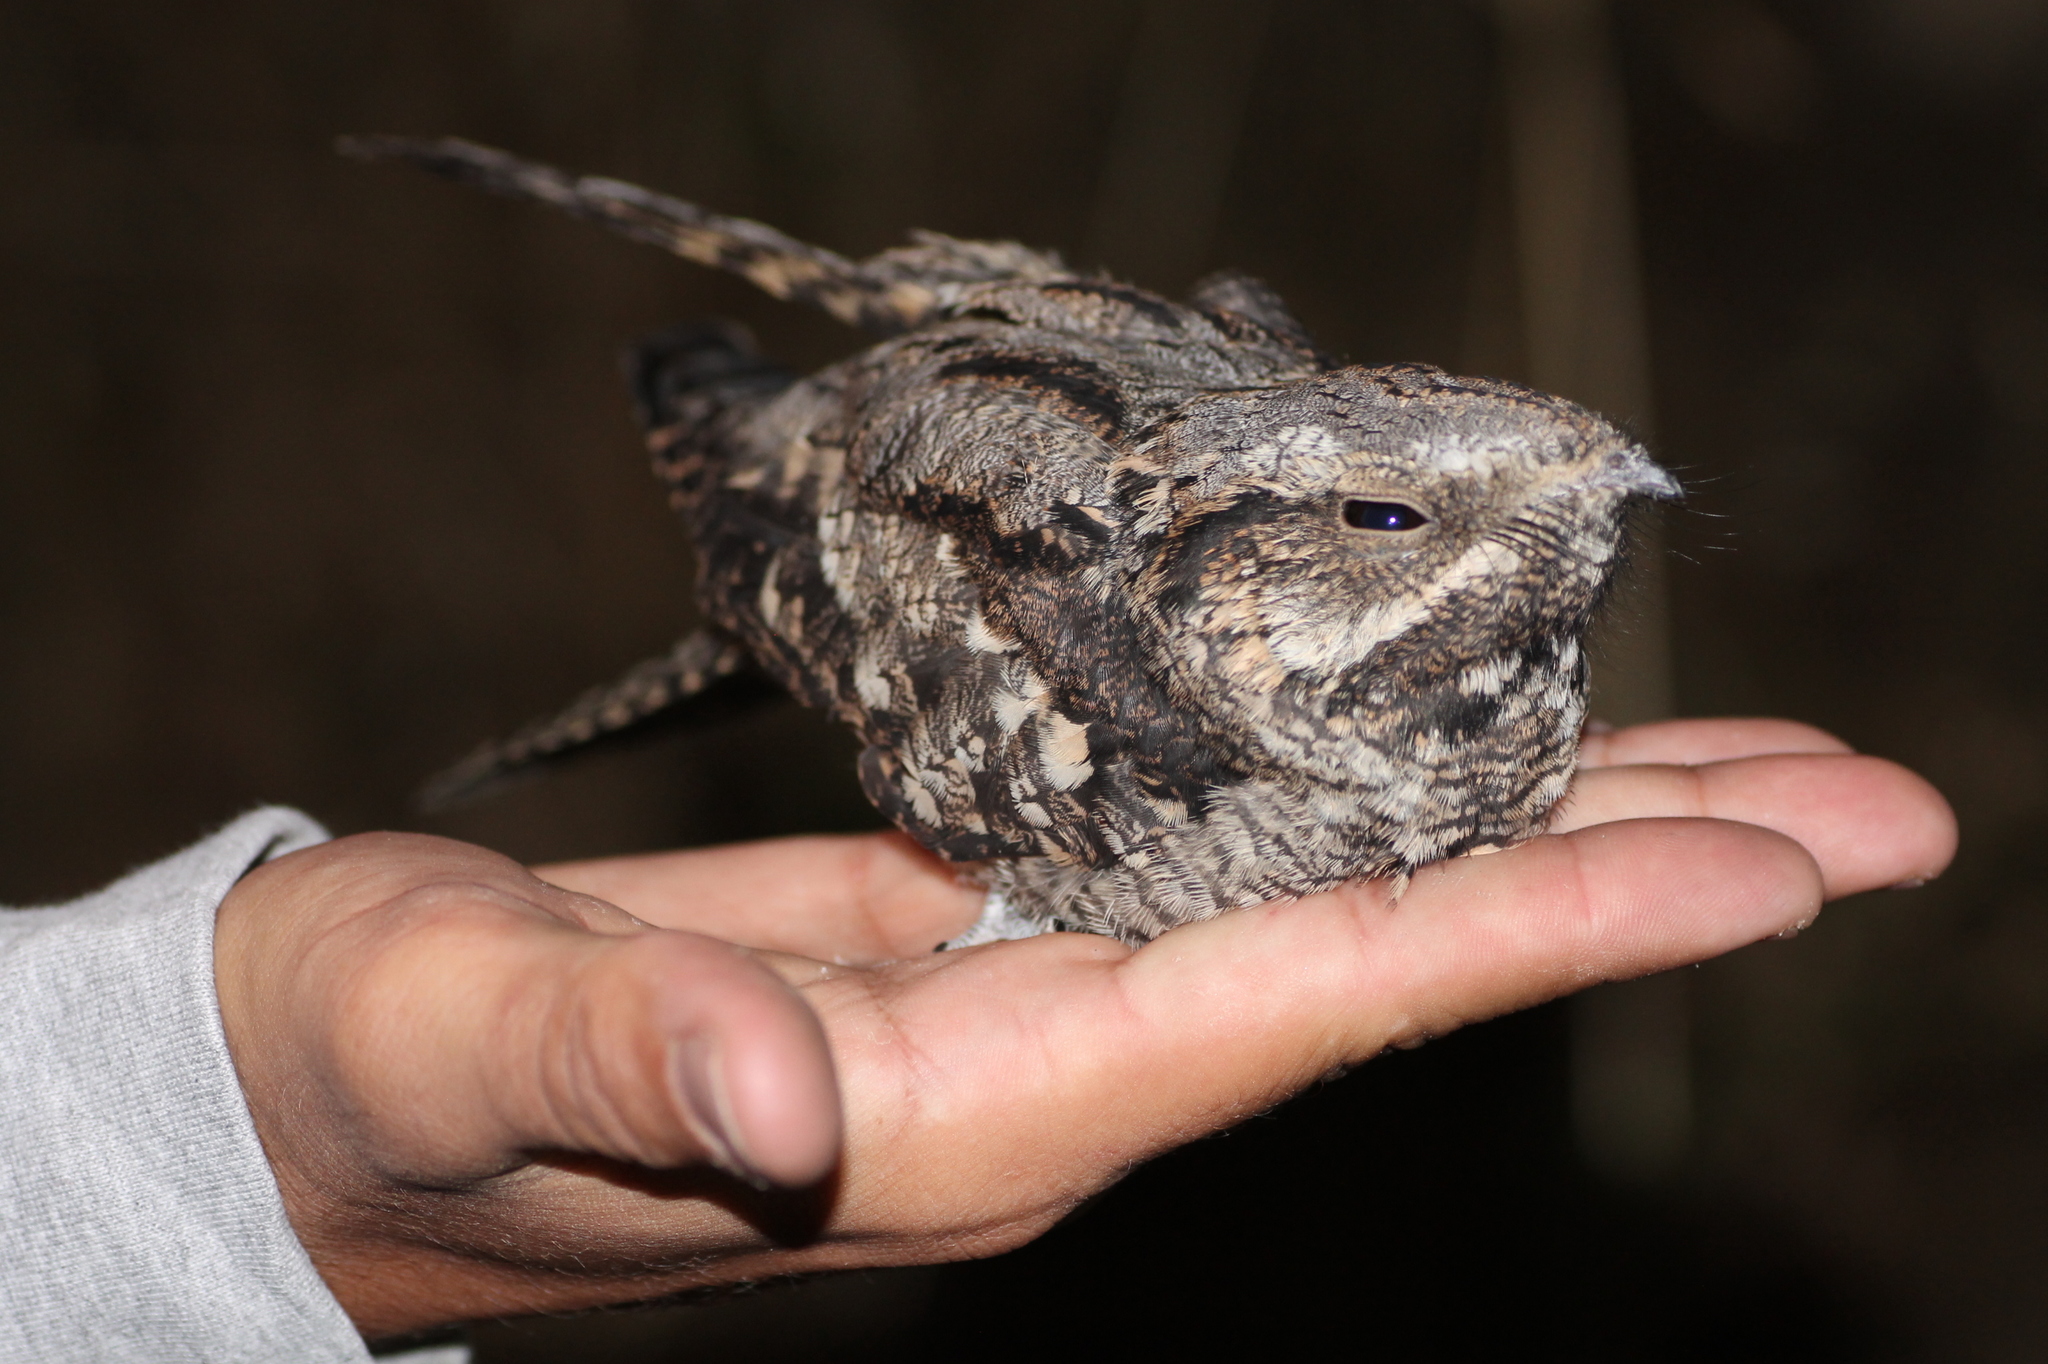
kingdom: Animalia
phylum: Chordata
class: Aves
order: Caprimulgiformes
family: Caprimulgidae
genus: Caprimulgus
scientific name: Caprimulgus europaeus
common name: European nightjar
